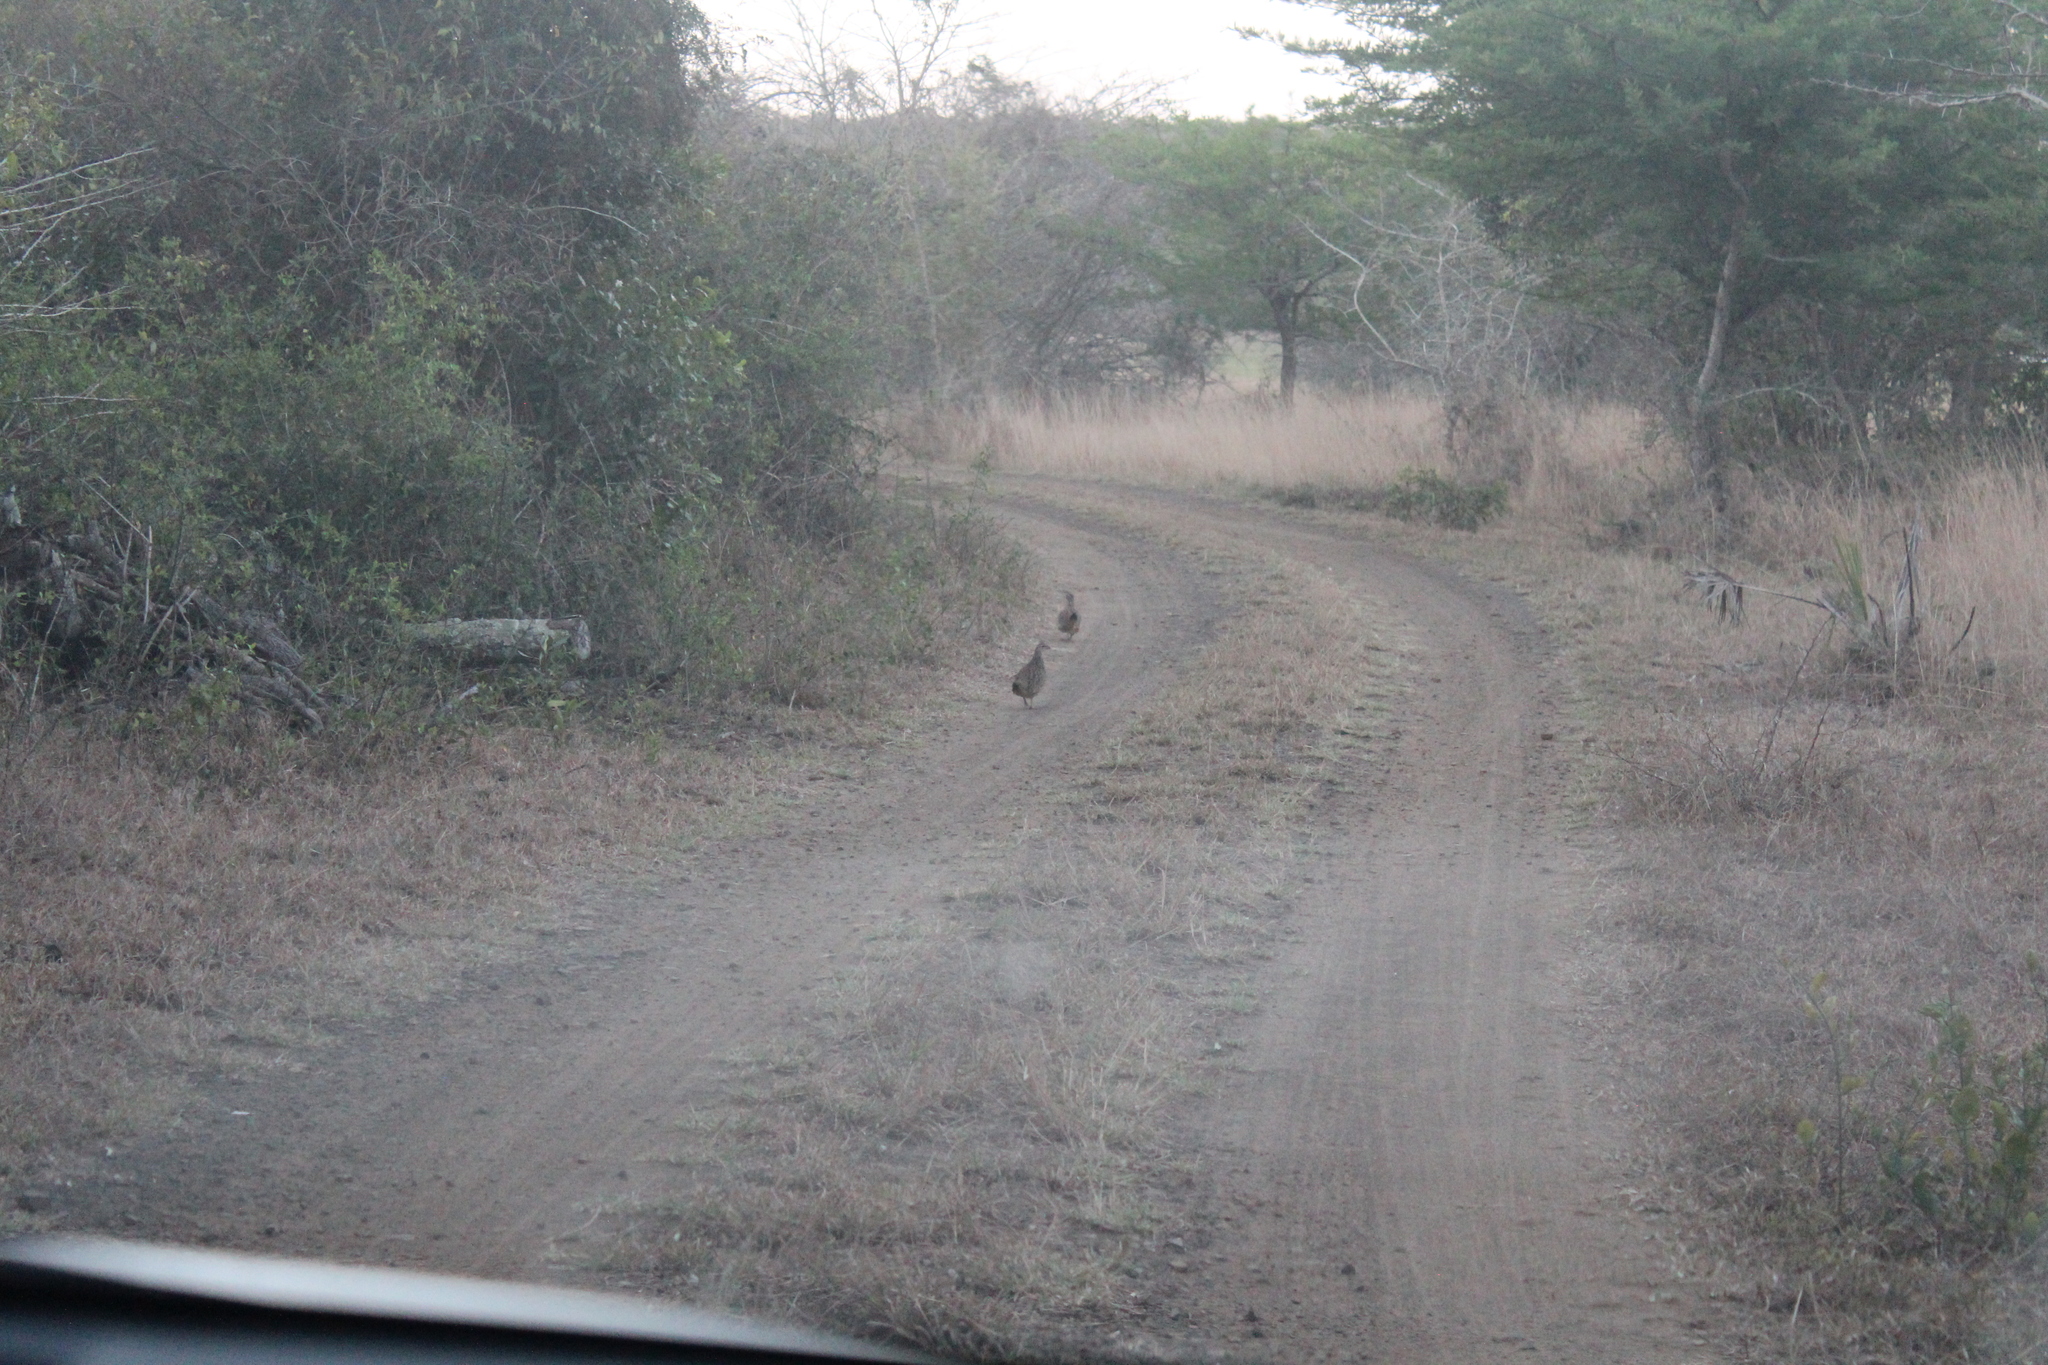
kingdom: Animalia
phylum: Chordata
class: Aves
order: Galliformes
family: Phasianidae
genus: Ortygornis
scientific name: Ortygornis sephaena
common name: Crested francolin
